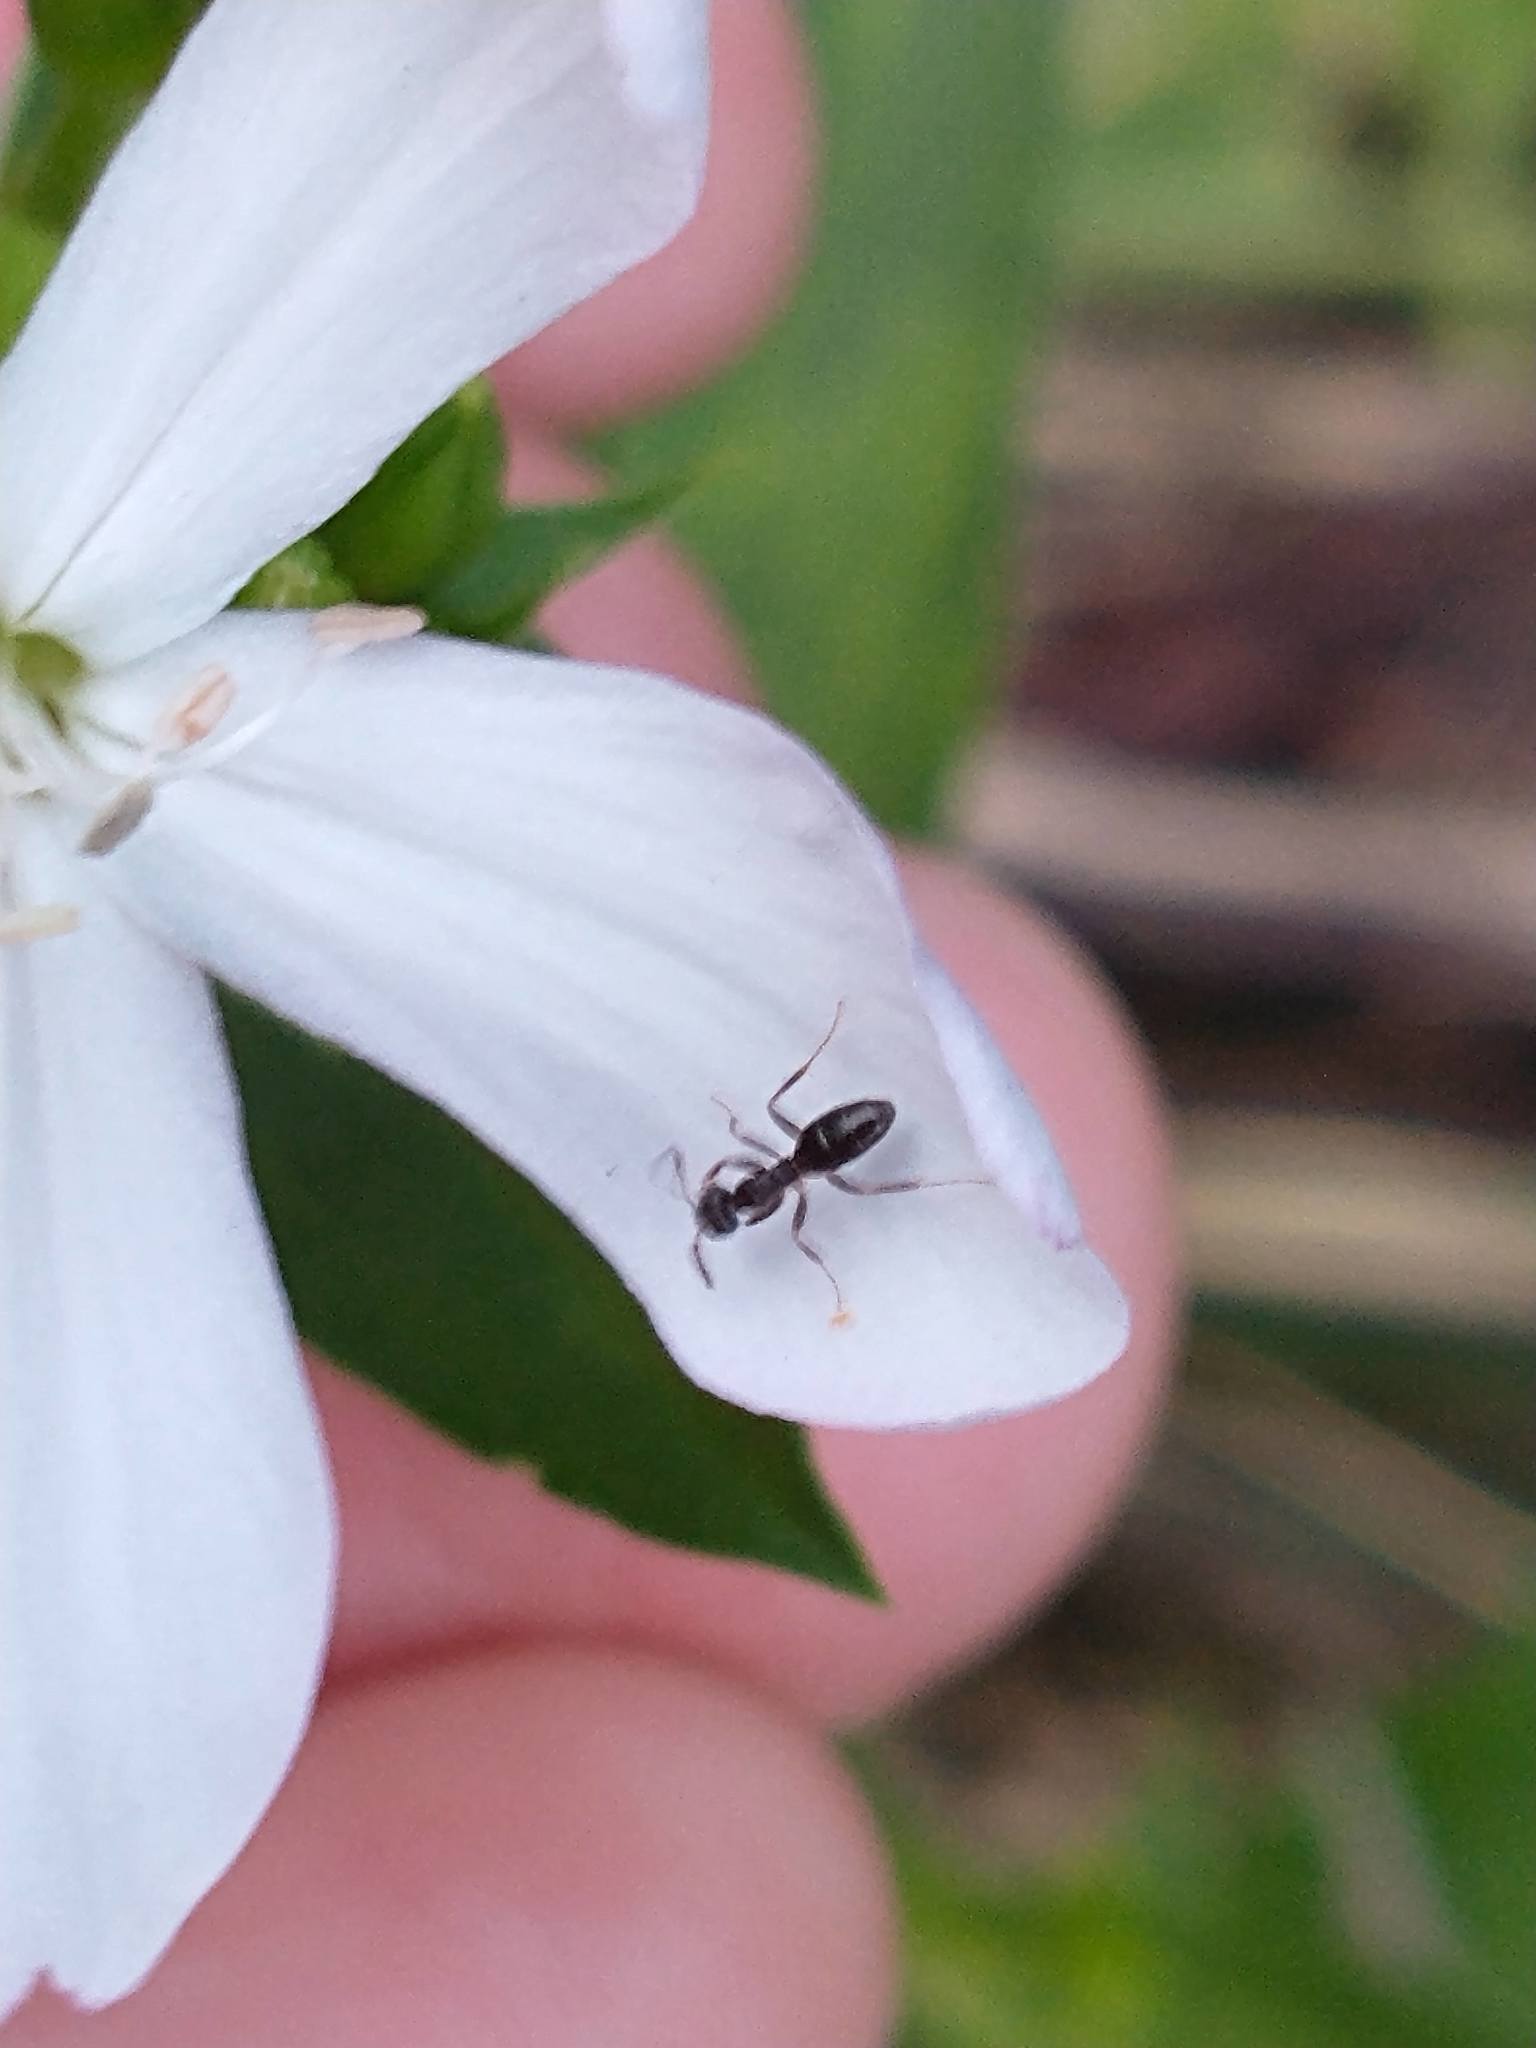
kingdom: Animalia
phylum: Arthropoda
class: Insecta
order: Hymenoptera
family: Formicidae
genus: Tapinoma
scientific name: Tapinoma sessile
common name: Odorous house ant
